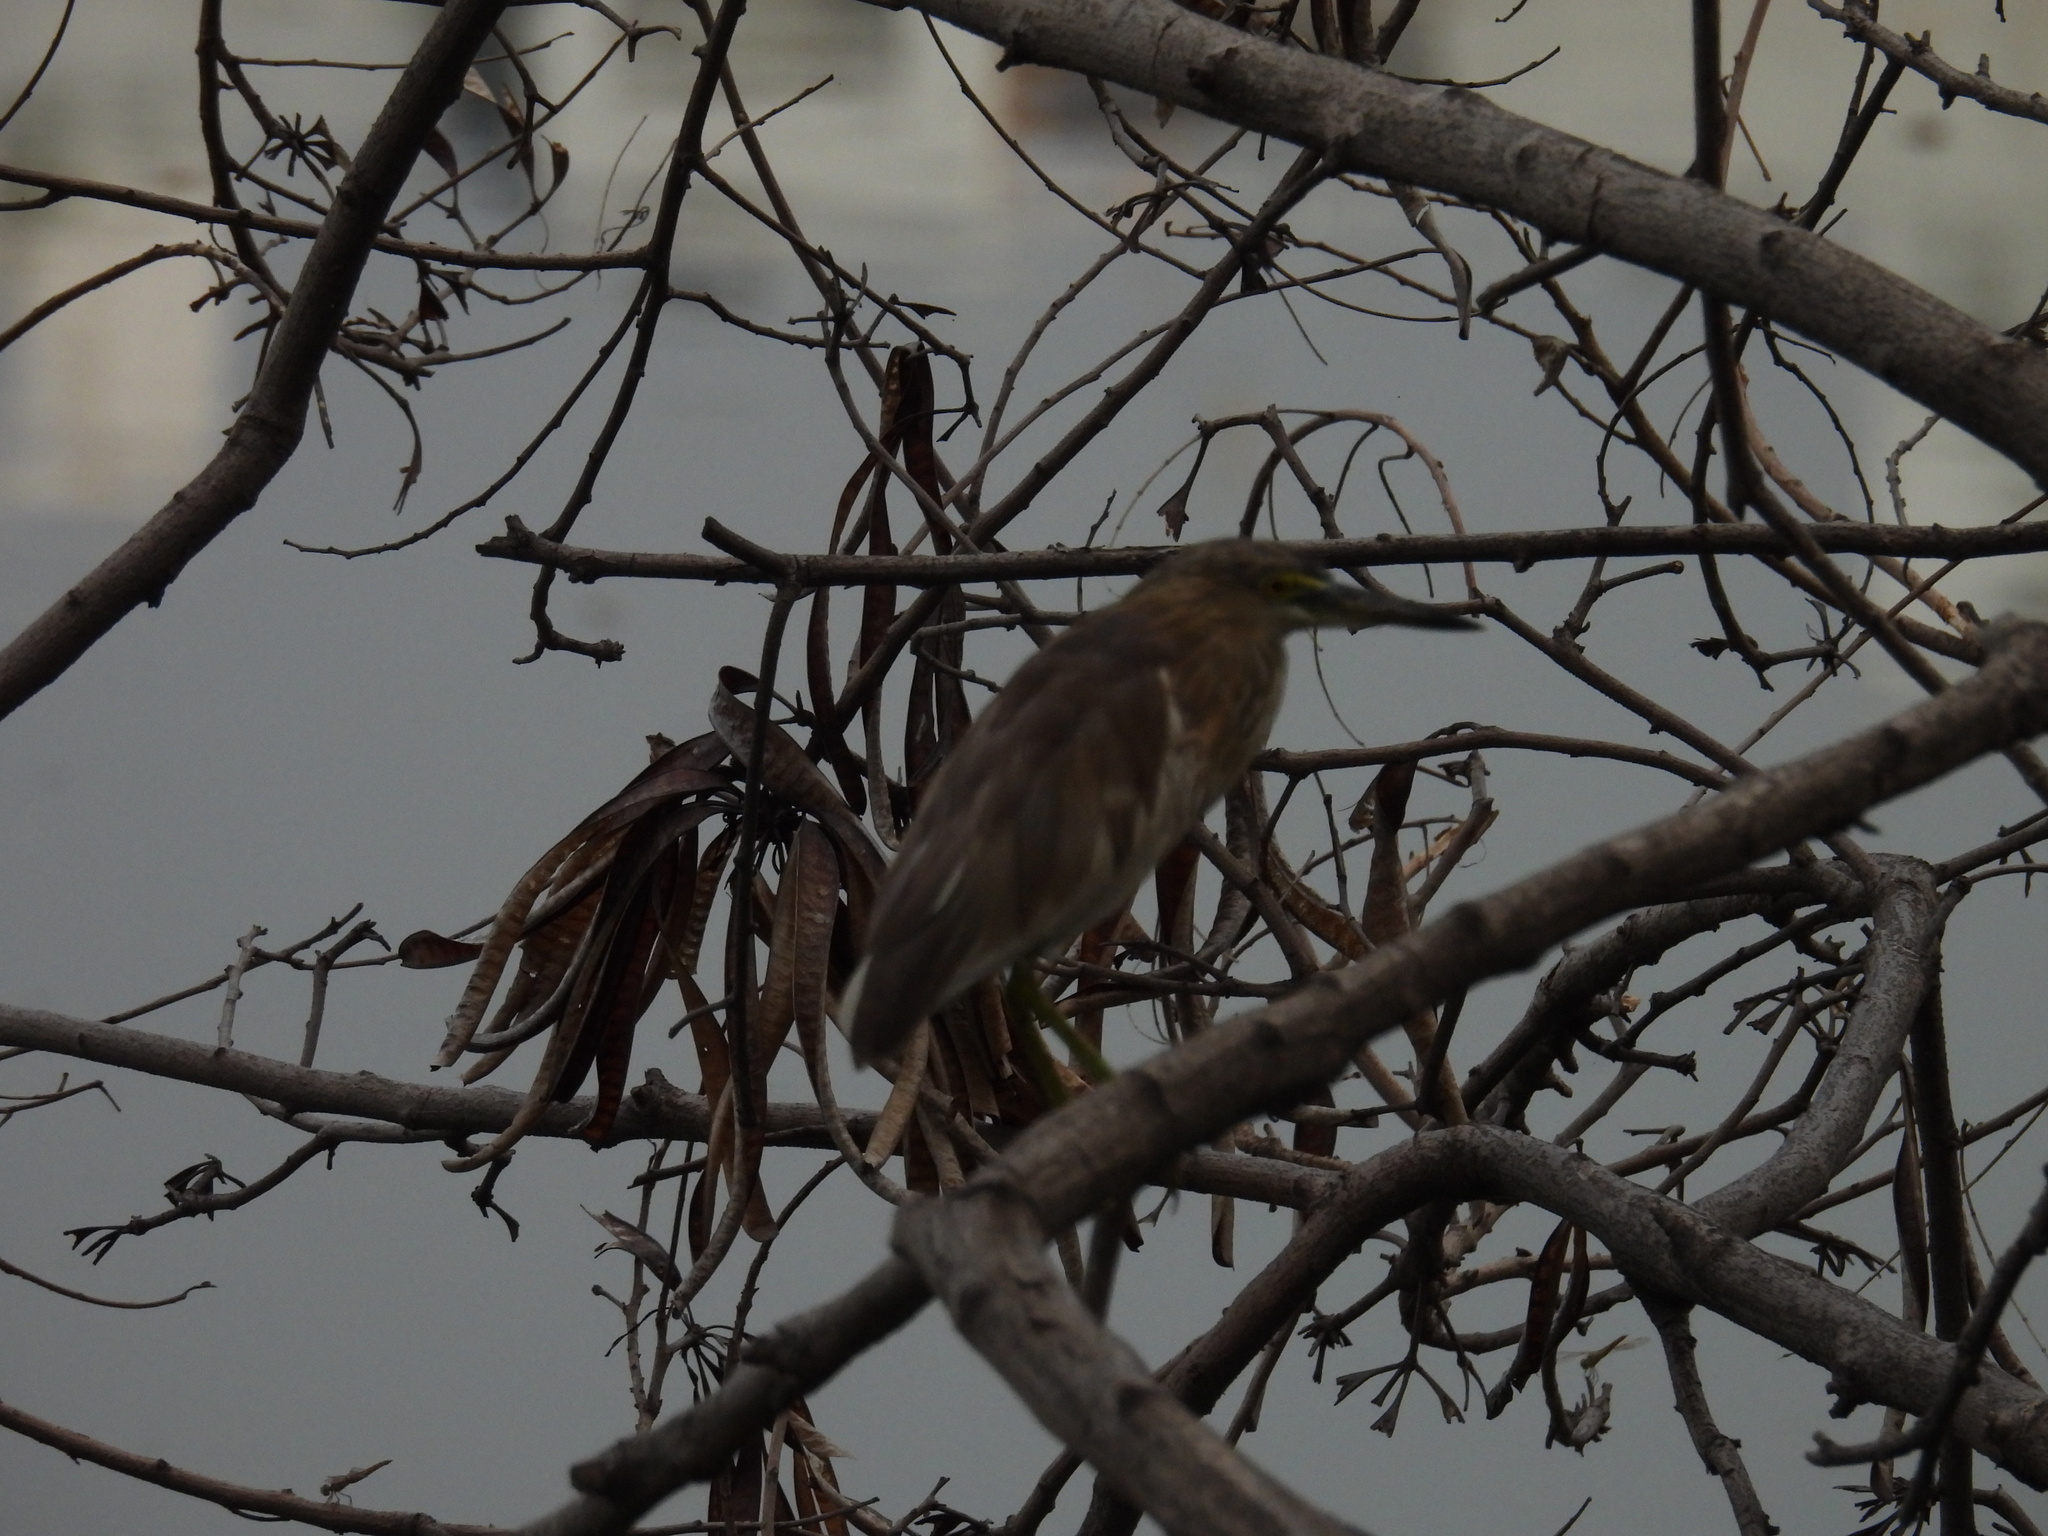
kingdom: Animalia
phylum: Chordata
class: Aves
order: Pelecaniformes
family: Ardeidae
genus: Ardeola
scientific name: Ardeola grayii
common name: Indian pond heron
